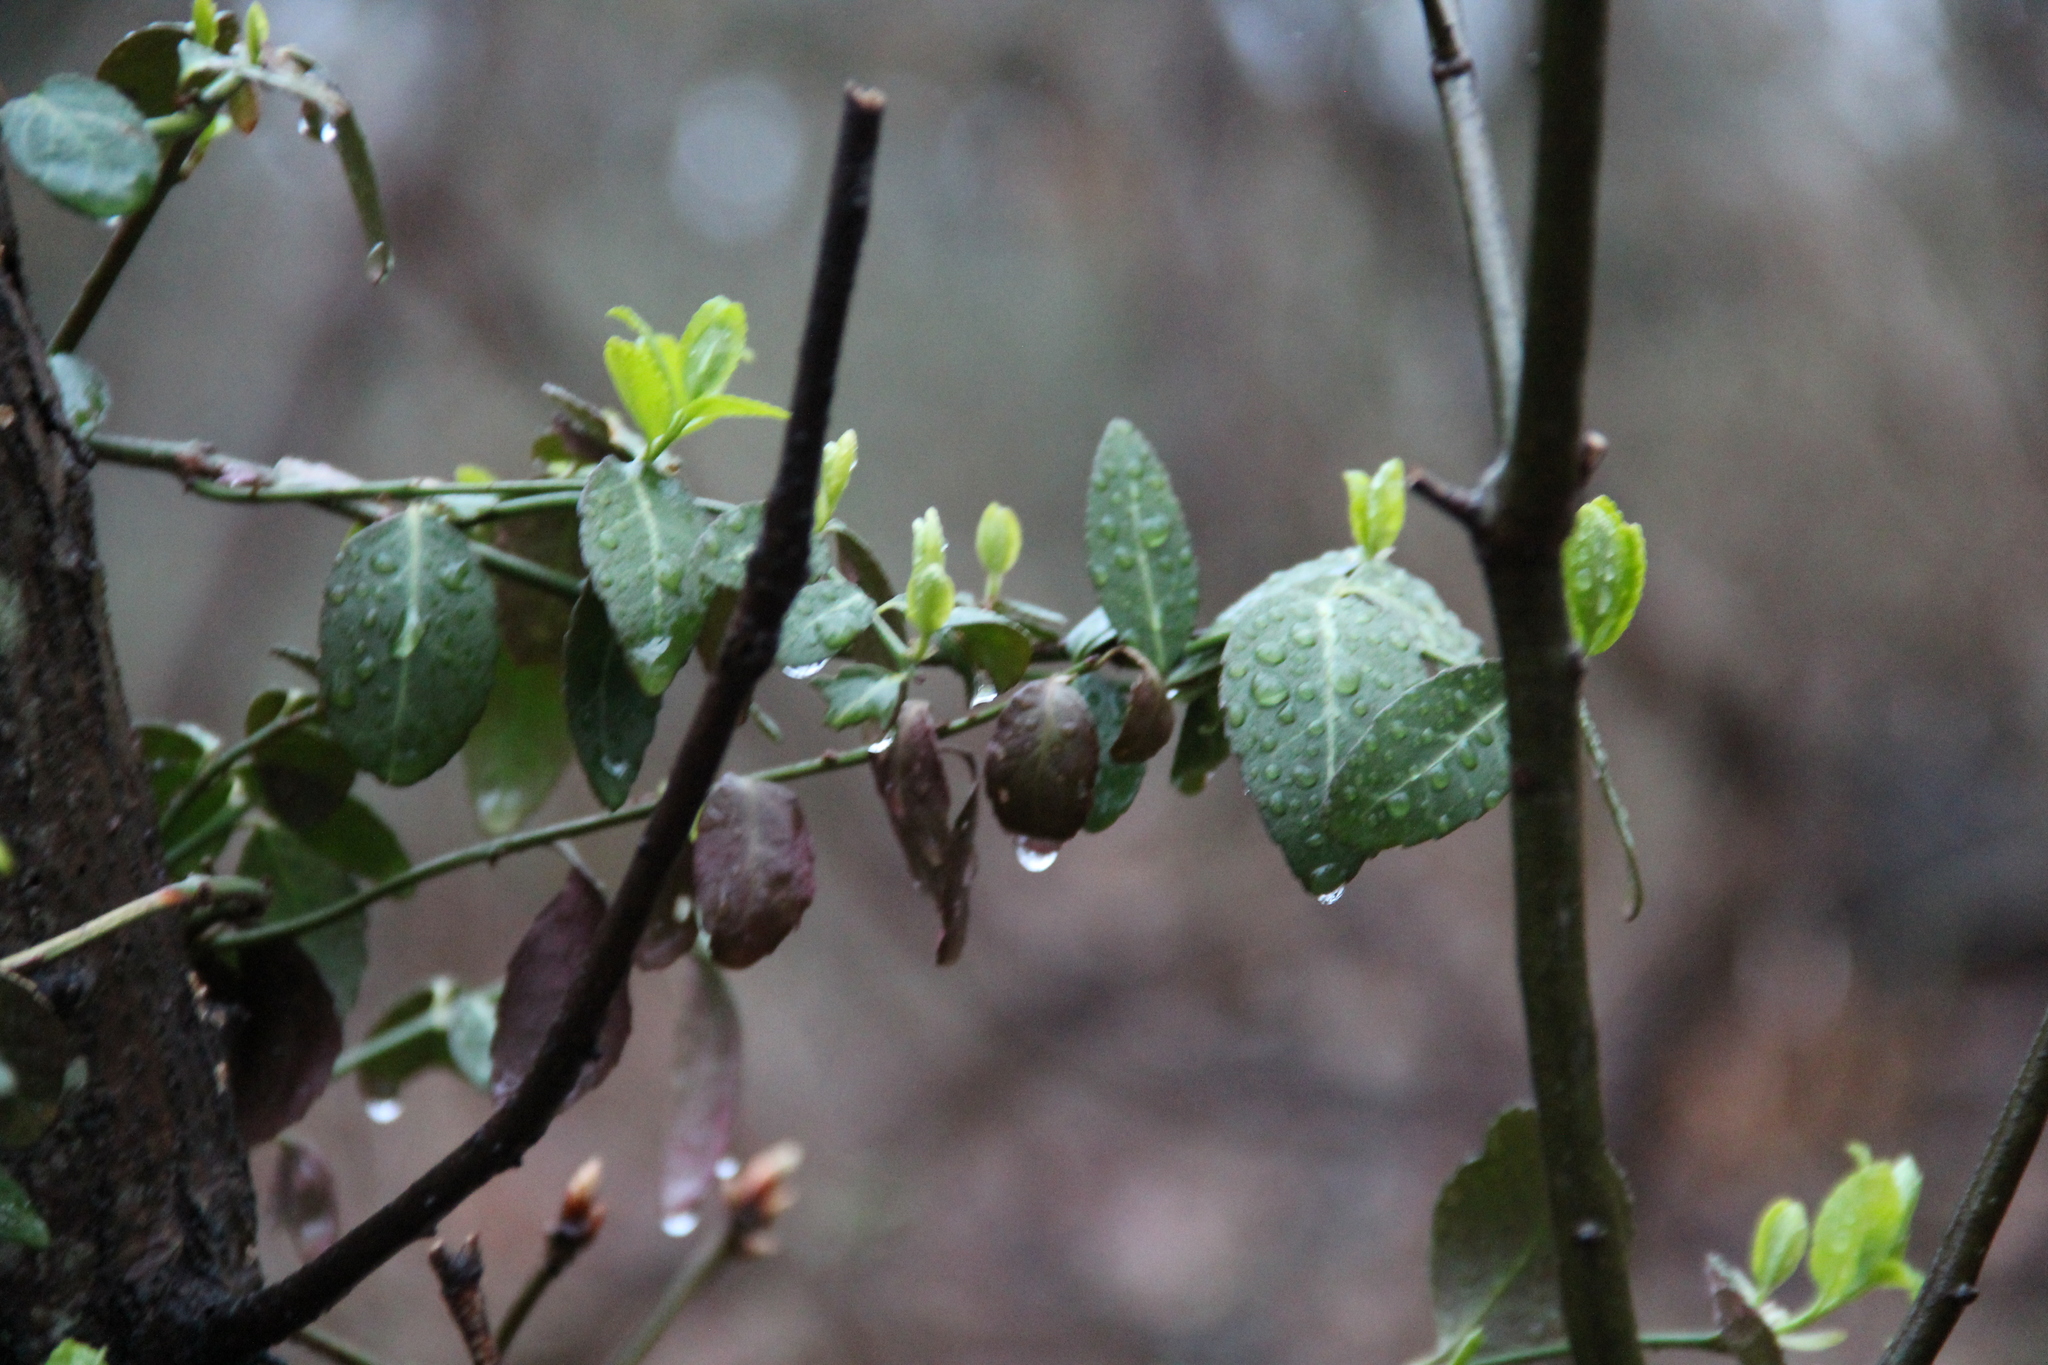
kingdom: Plantae
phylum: Tracheophyta
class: Magnoliopsida
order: Celastrales
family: Celastraceae
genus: Euonymus
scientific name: Euonymus fortunei
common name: Climbing euonymus
